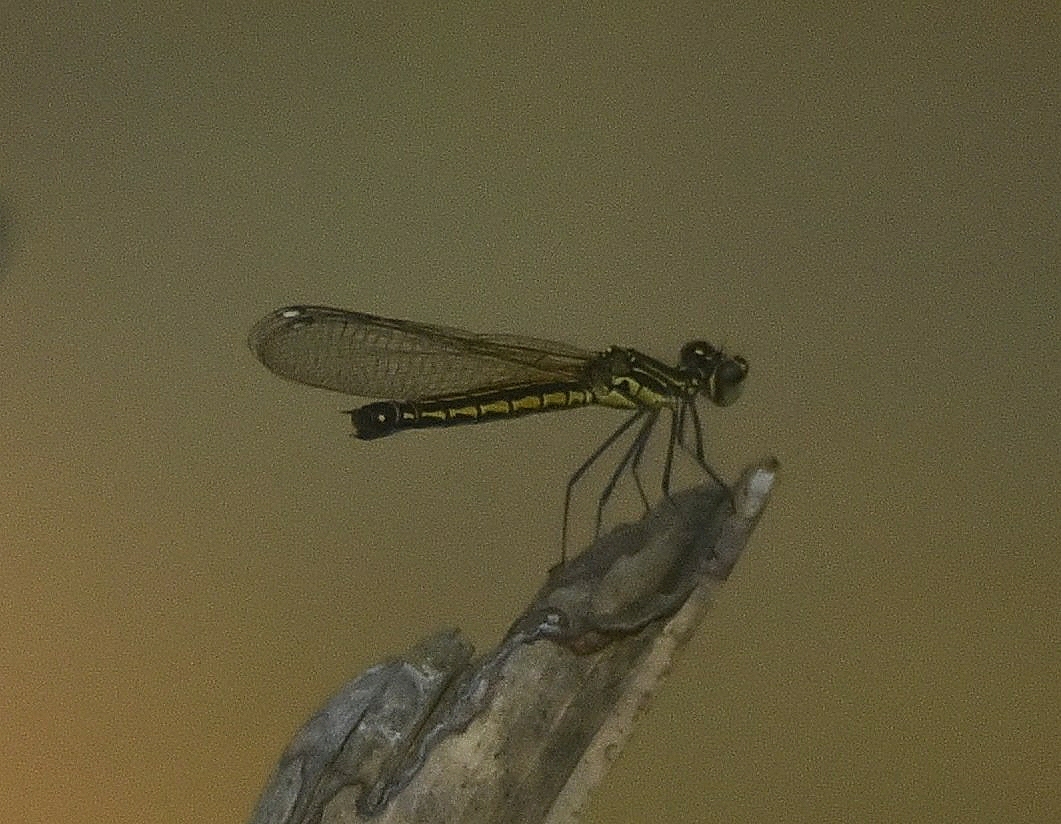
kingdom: Animalia
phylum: Arthropoda
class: Insecta
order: Odonata
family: Chlorocyphidae
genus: Libellago
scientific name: Libellago indica
